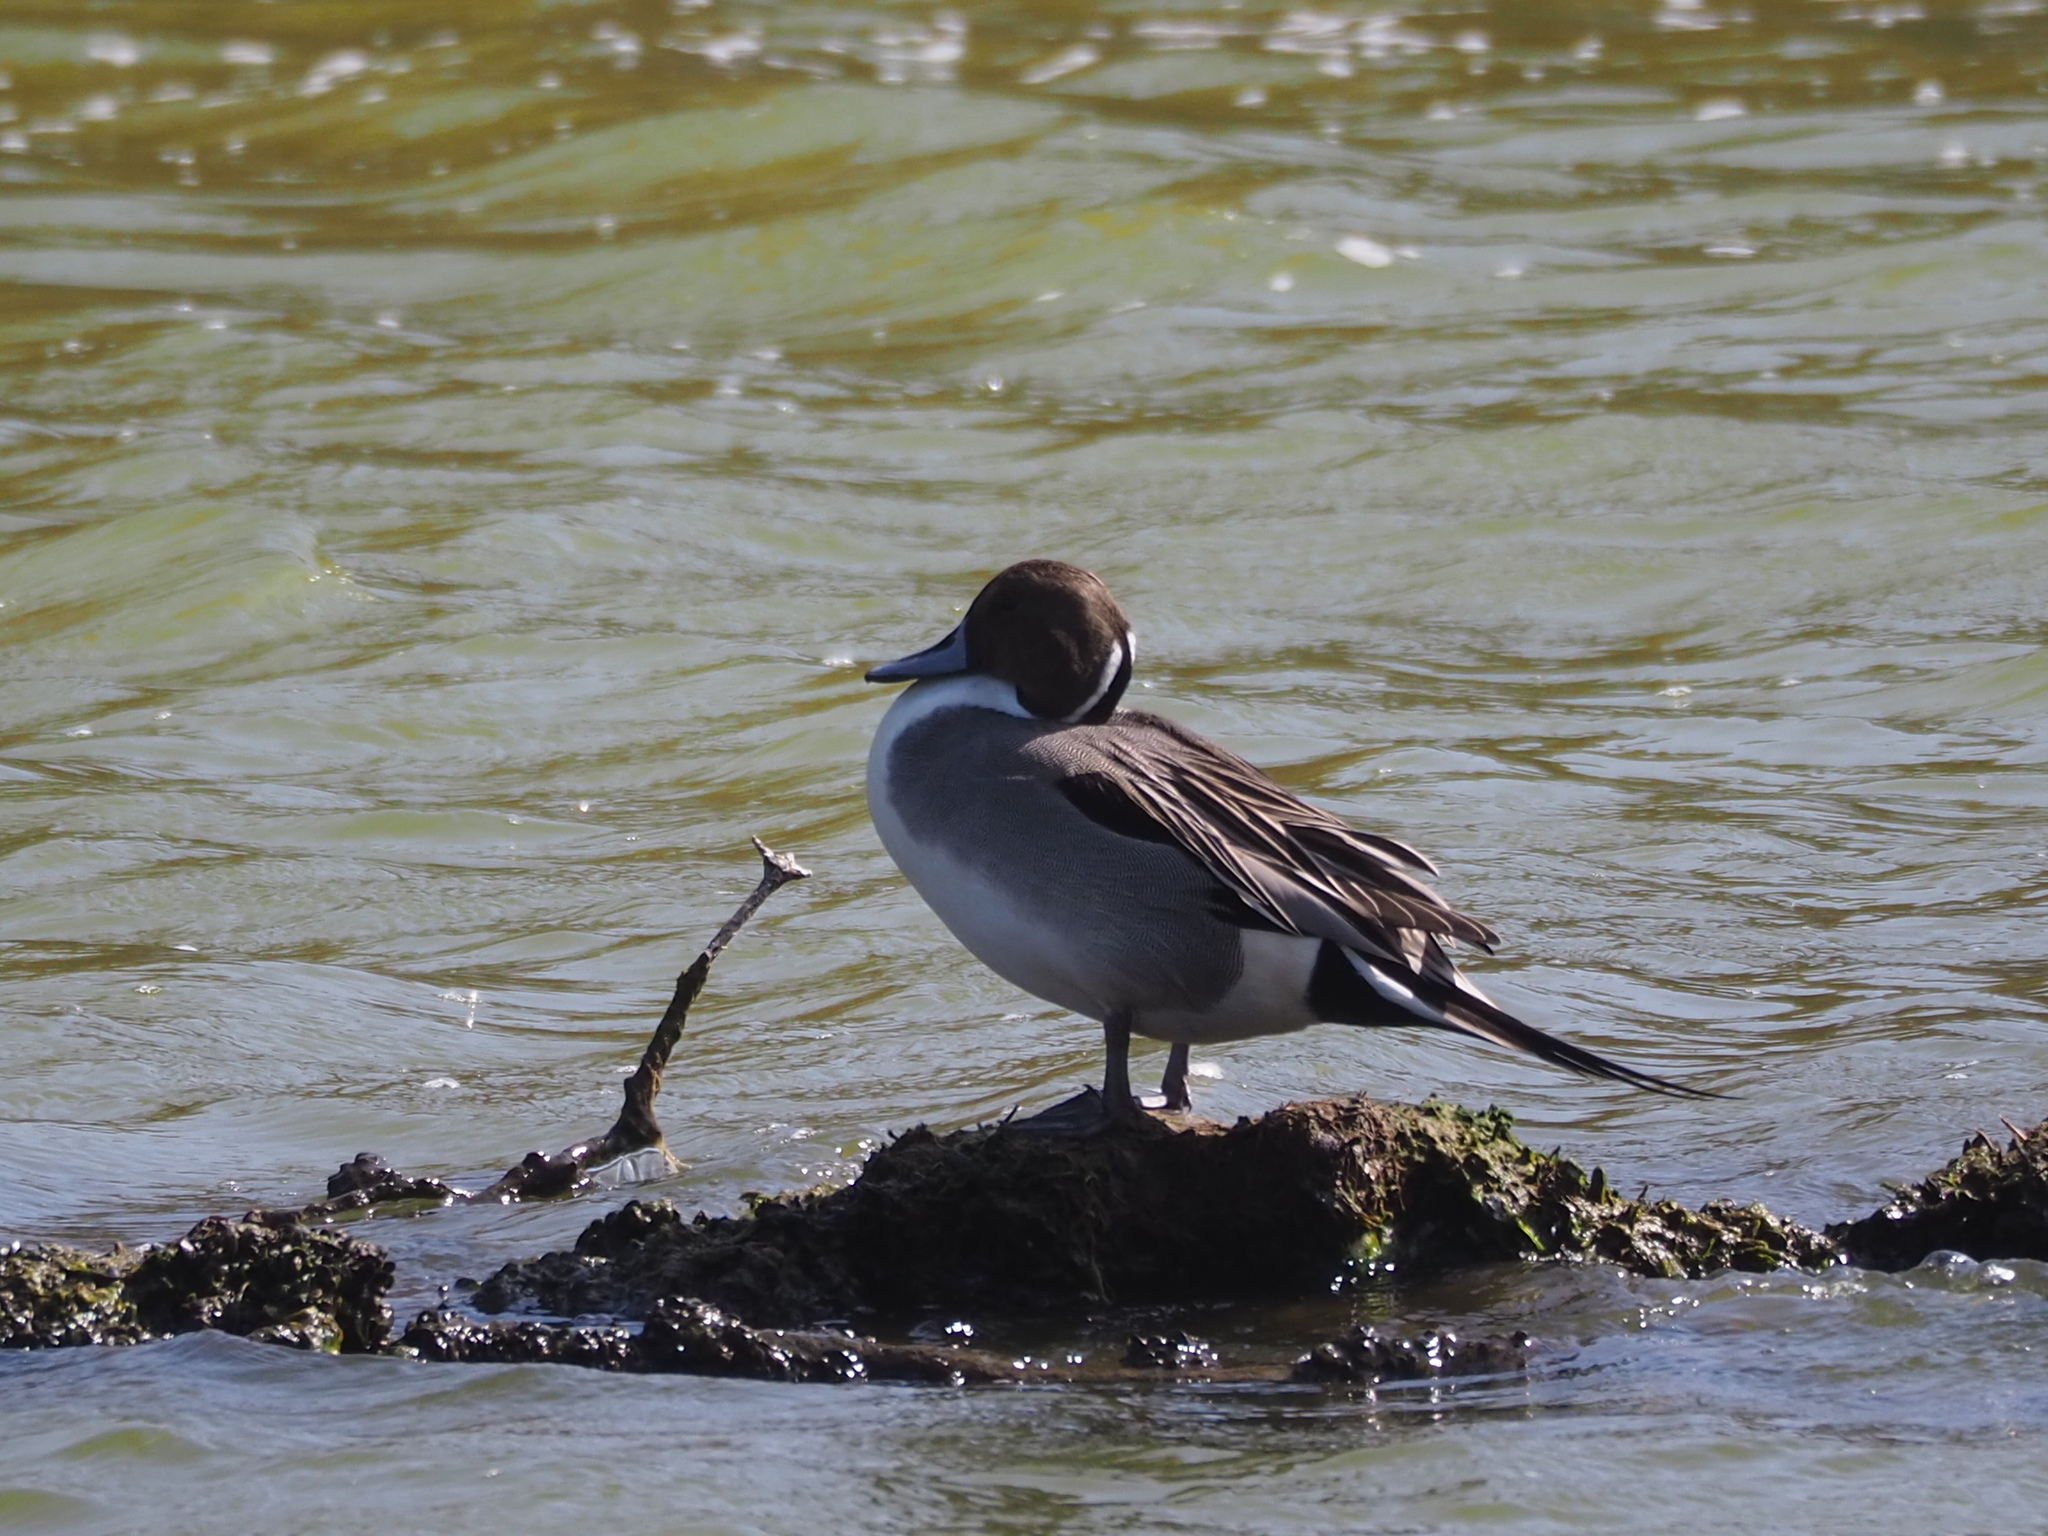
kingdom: Animalia
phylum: Chordata
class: Aves
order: Anseriformes
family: Anatidae
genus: Anas
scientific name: Anas acuta
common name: Northern pintail
